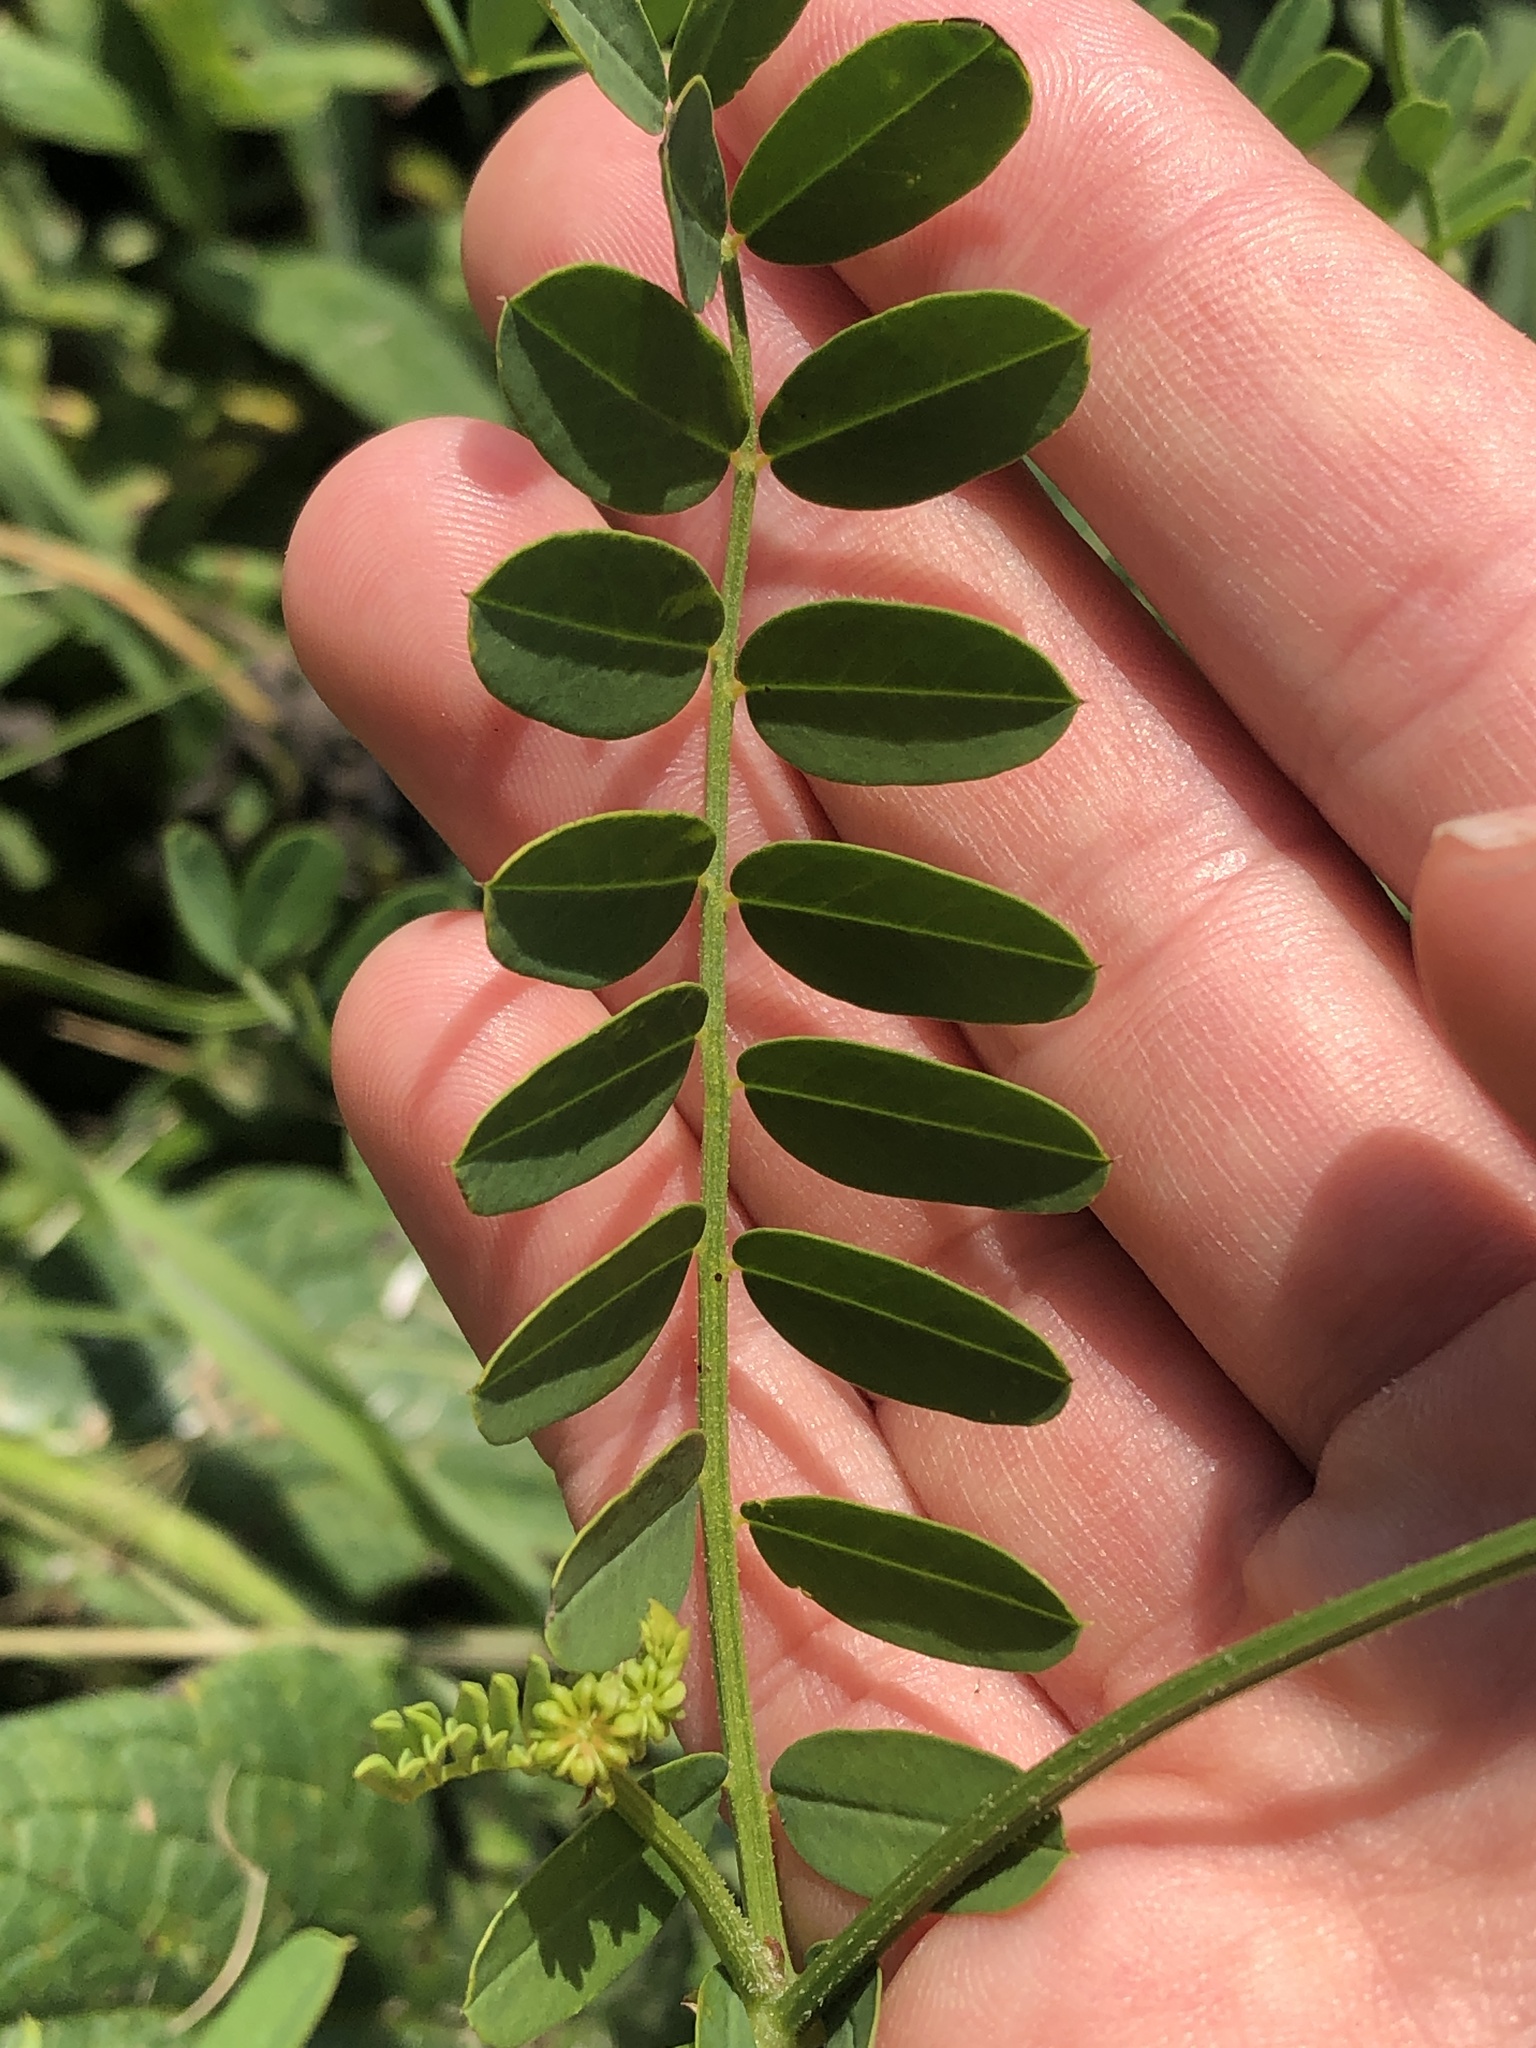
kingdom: Plantae
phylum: Tracheophyta
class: Magnoliopsida
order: Fabales
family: Fabaceae
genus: Coronilla
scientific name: Coronilla varia
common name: Crownvetch
